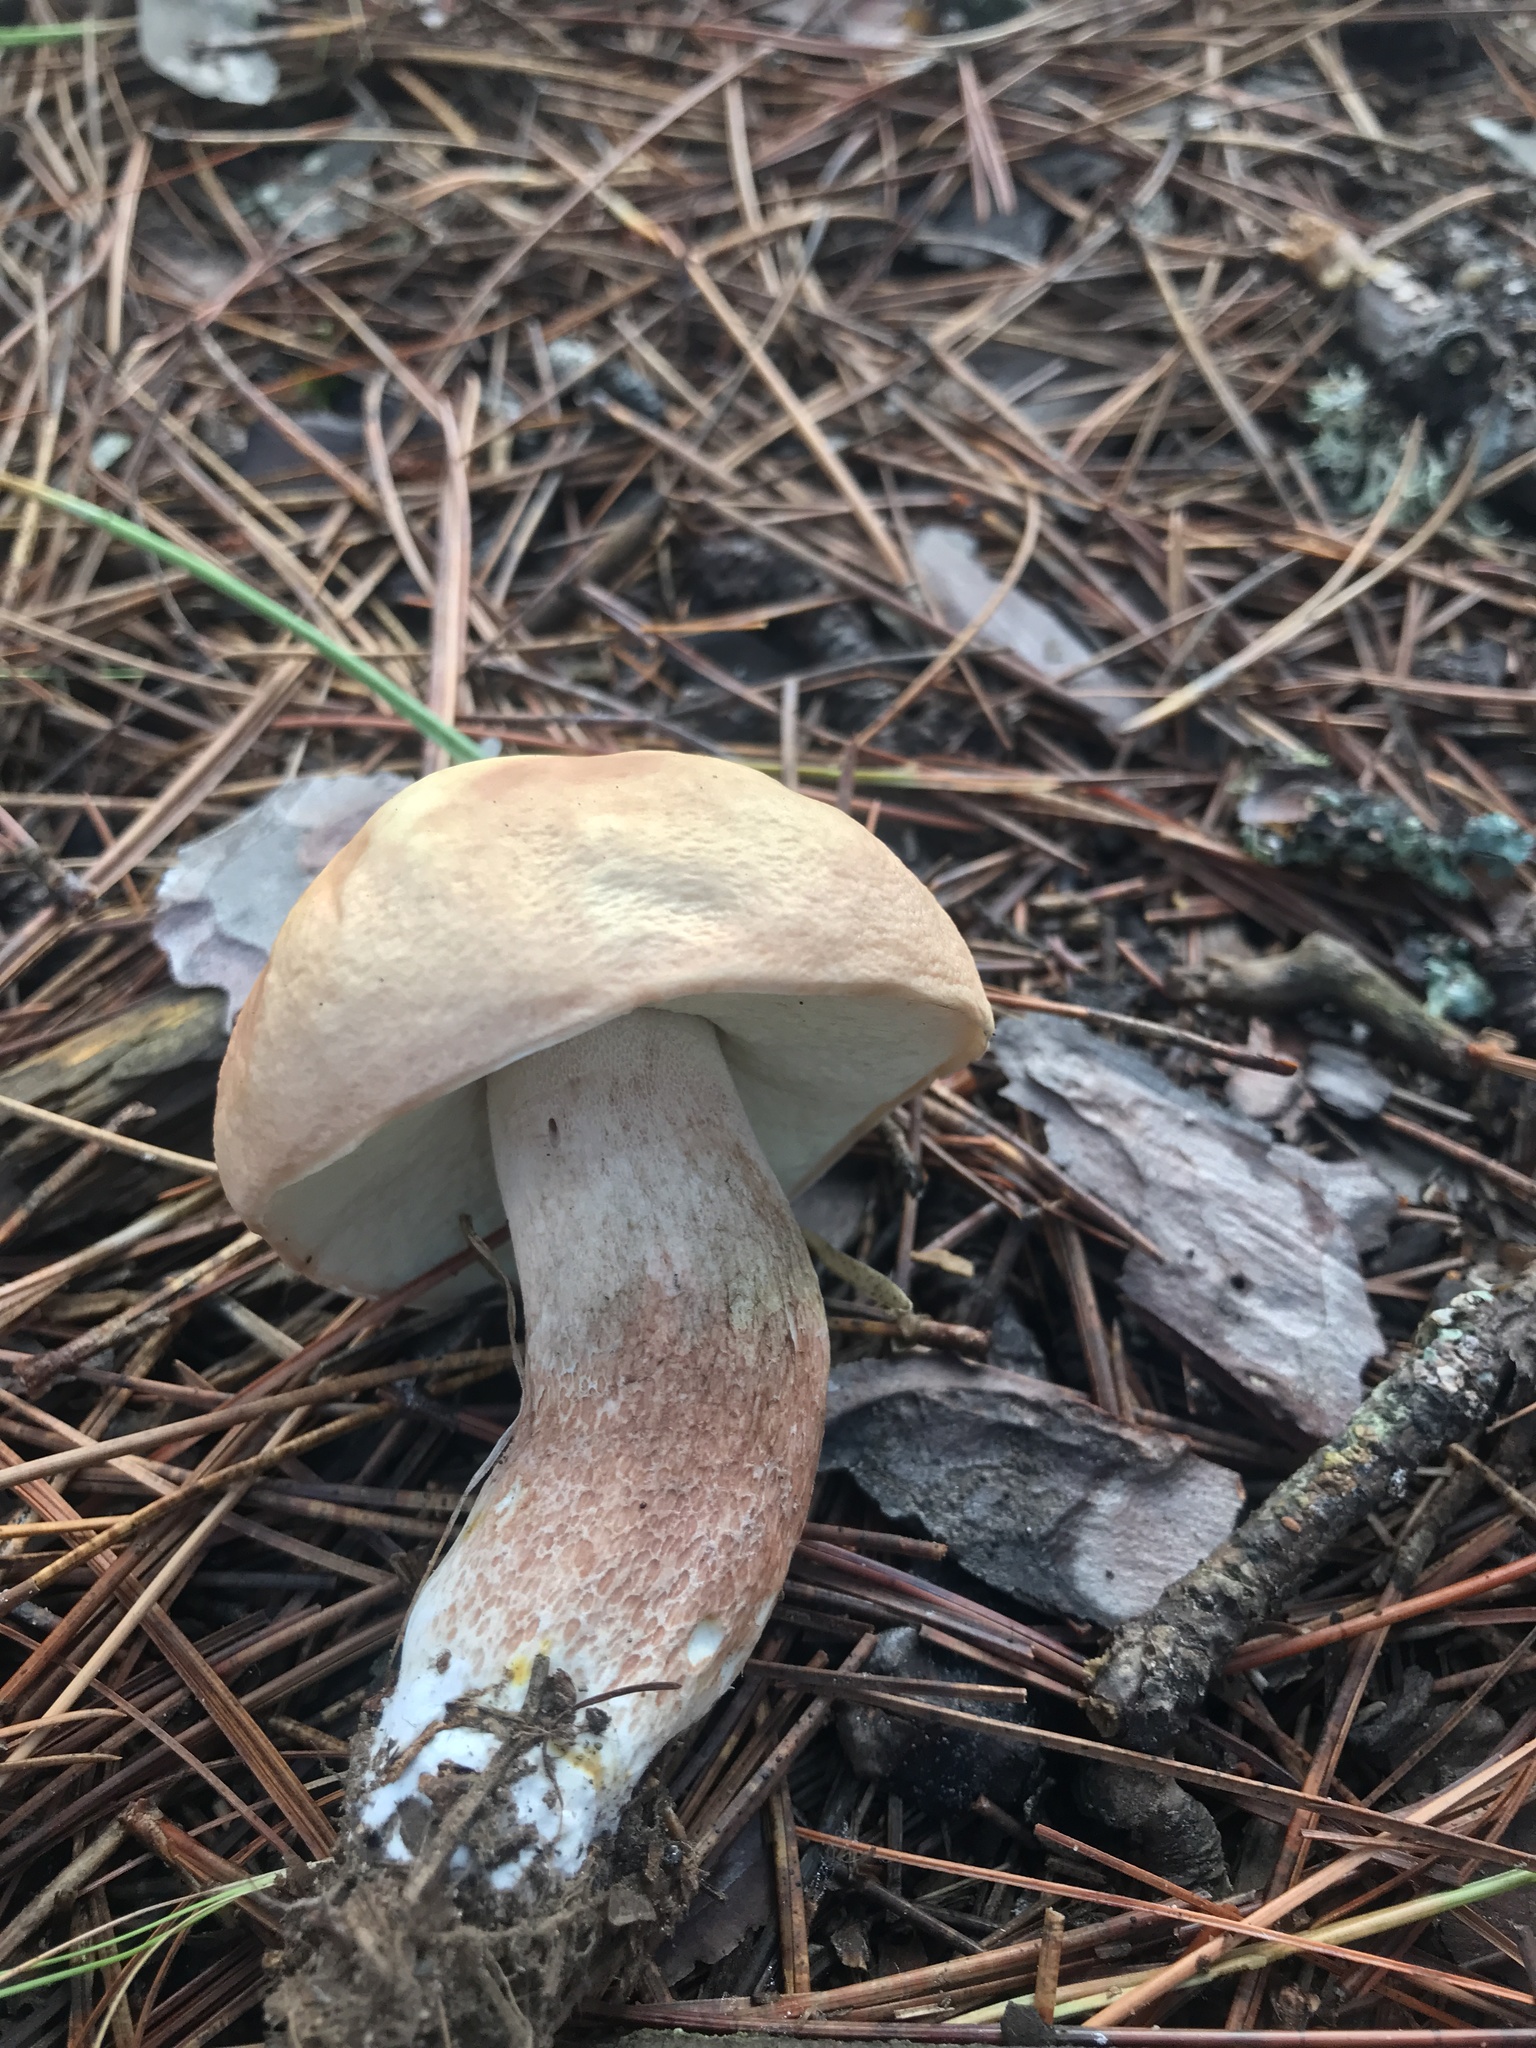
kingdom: Fungi
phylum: Basidiomycota
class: Agaricomycetes
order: Boletales
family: Boletaceae
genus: Boletus
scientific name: Boletus subcaerulescens
